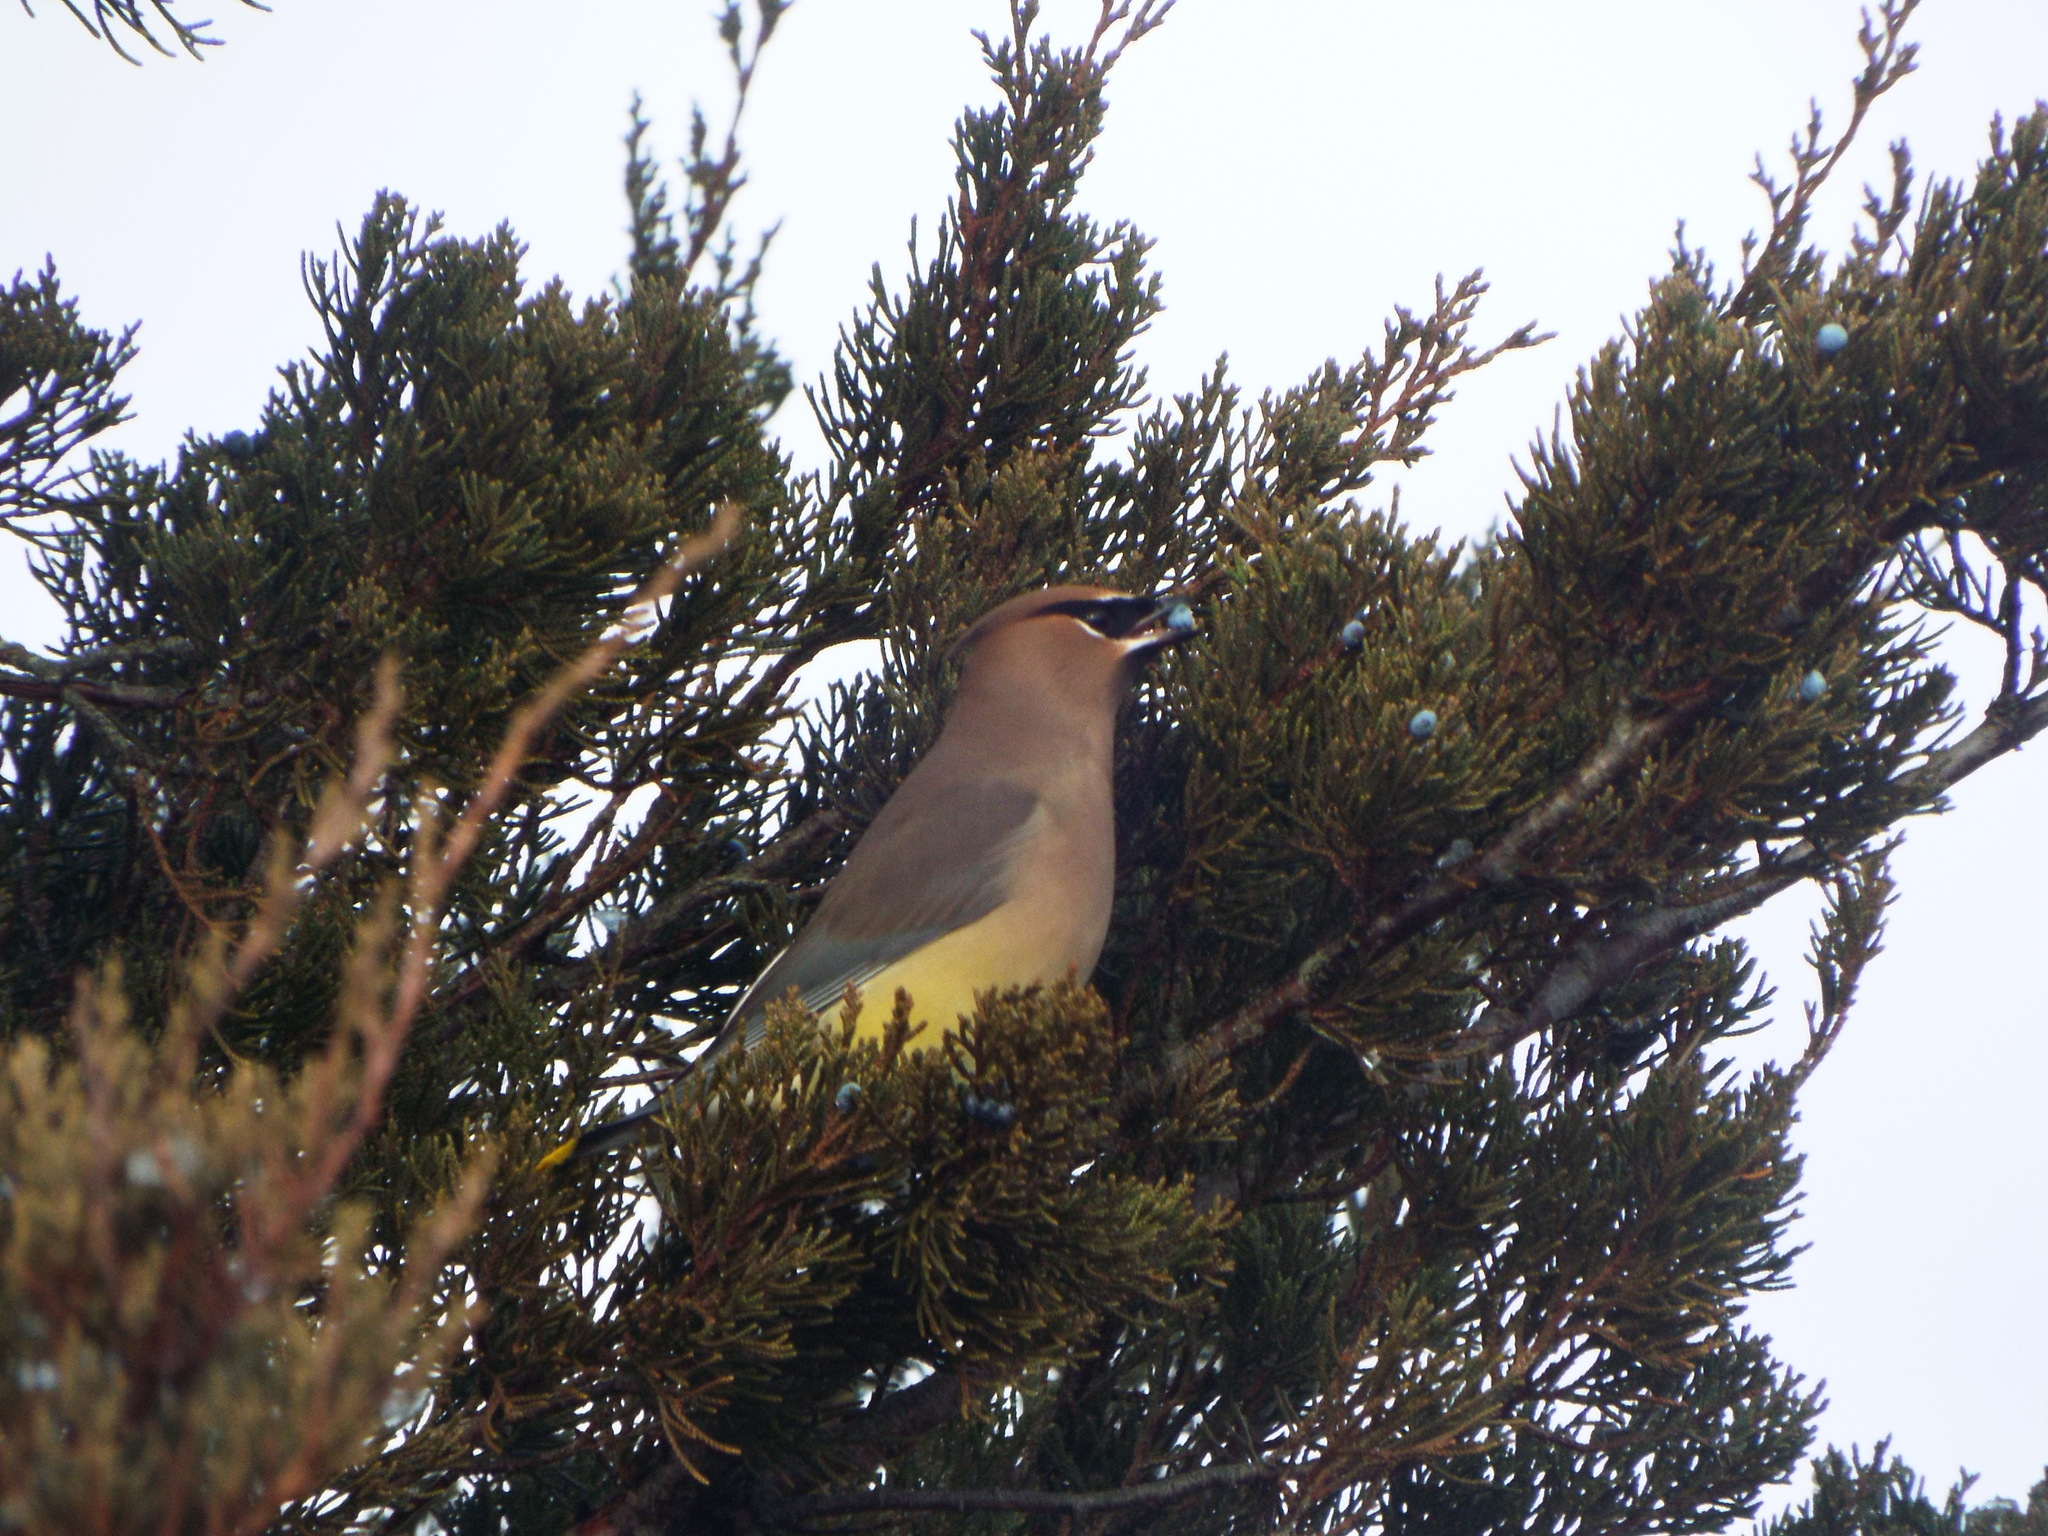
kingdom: Animalia
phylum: Chordata
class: Aves
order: Passeriformes
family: Bombycillidae
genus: Bombycilla
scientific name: Bombycilla cedrorum
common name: Cedar waxwing
